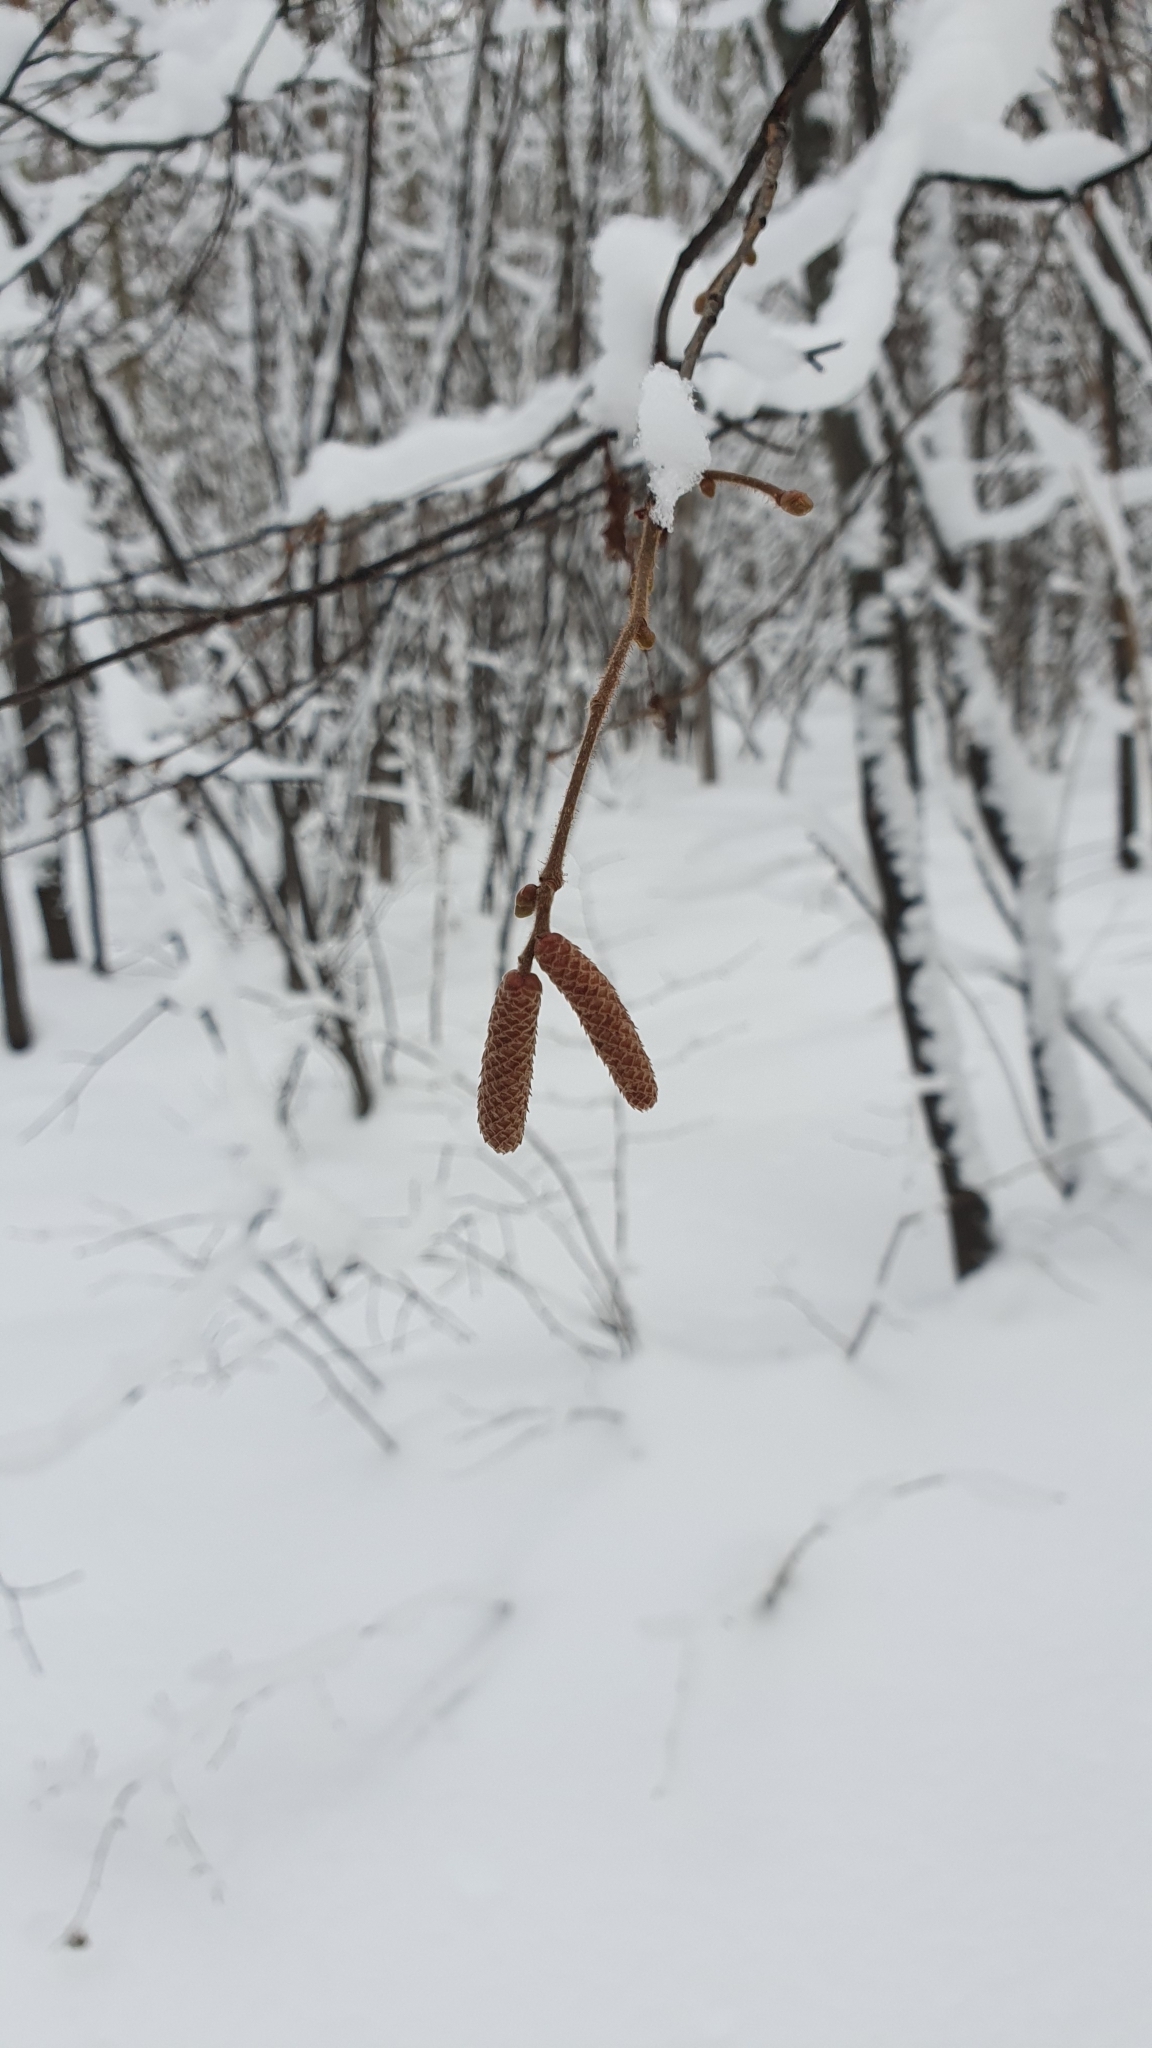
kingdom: Plantae
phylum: Tracheophyta
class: Magnoliopsida
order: Fagales
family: Betulaceae
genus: Corylus
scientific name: Corylus avellana
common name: European hazel
